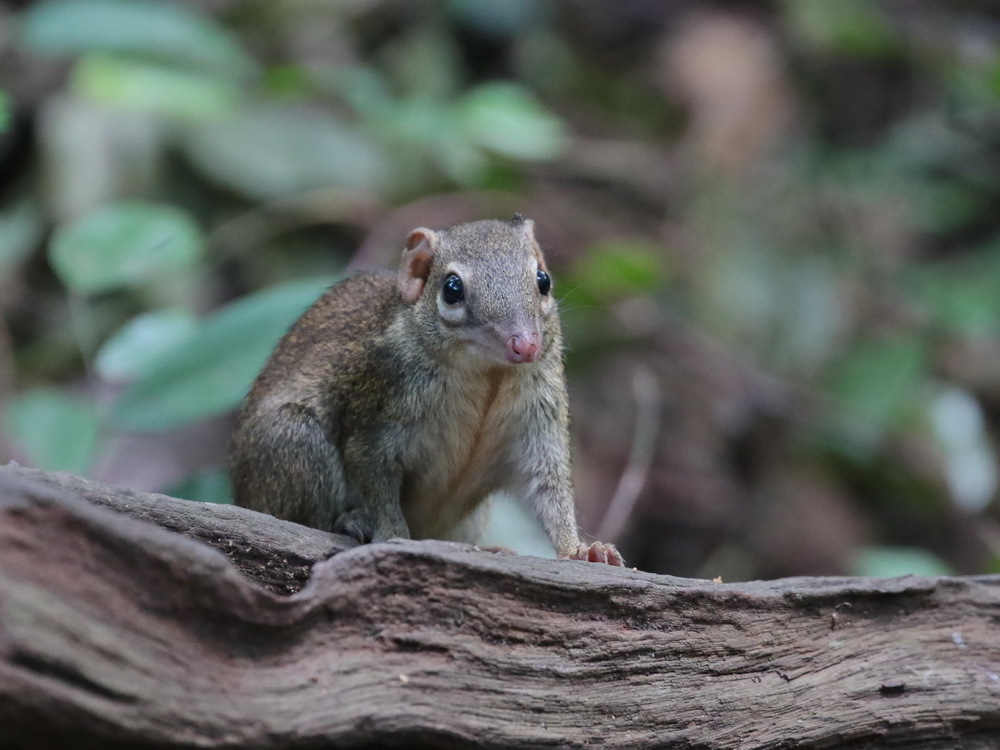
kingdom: Animalia
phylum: Chordata
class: Mammalia
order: Scandentia
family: Tupaiidae
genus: Tupaia
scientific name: Tupaia belangeri
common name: Northern treeshrew
